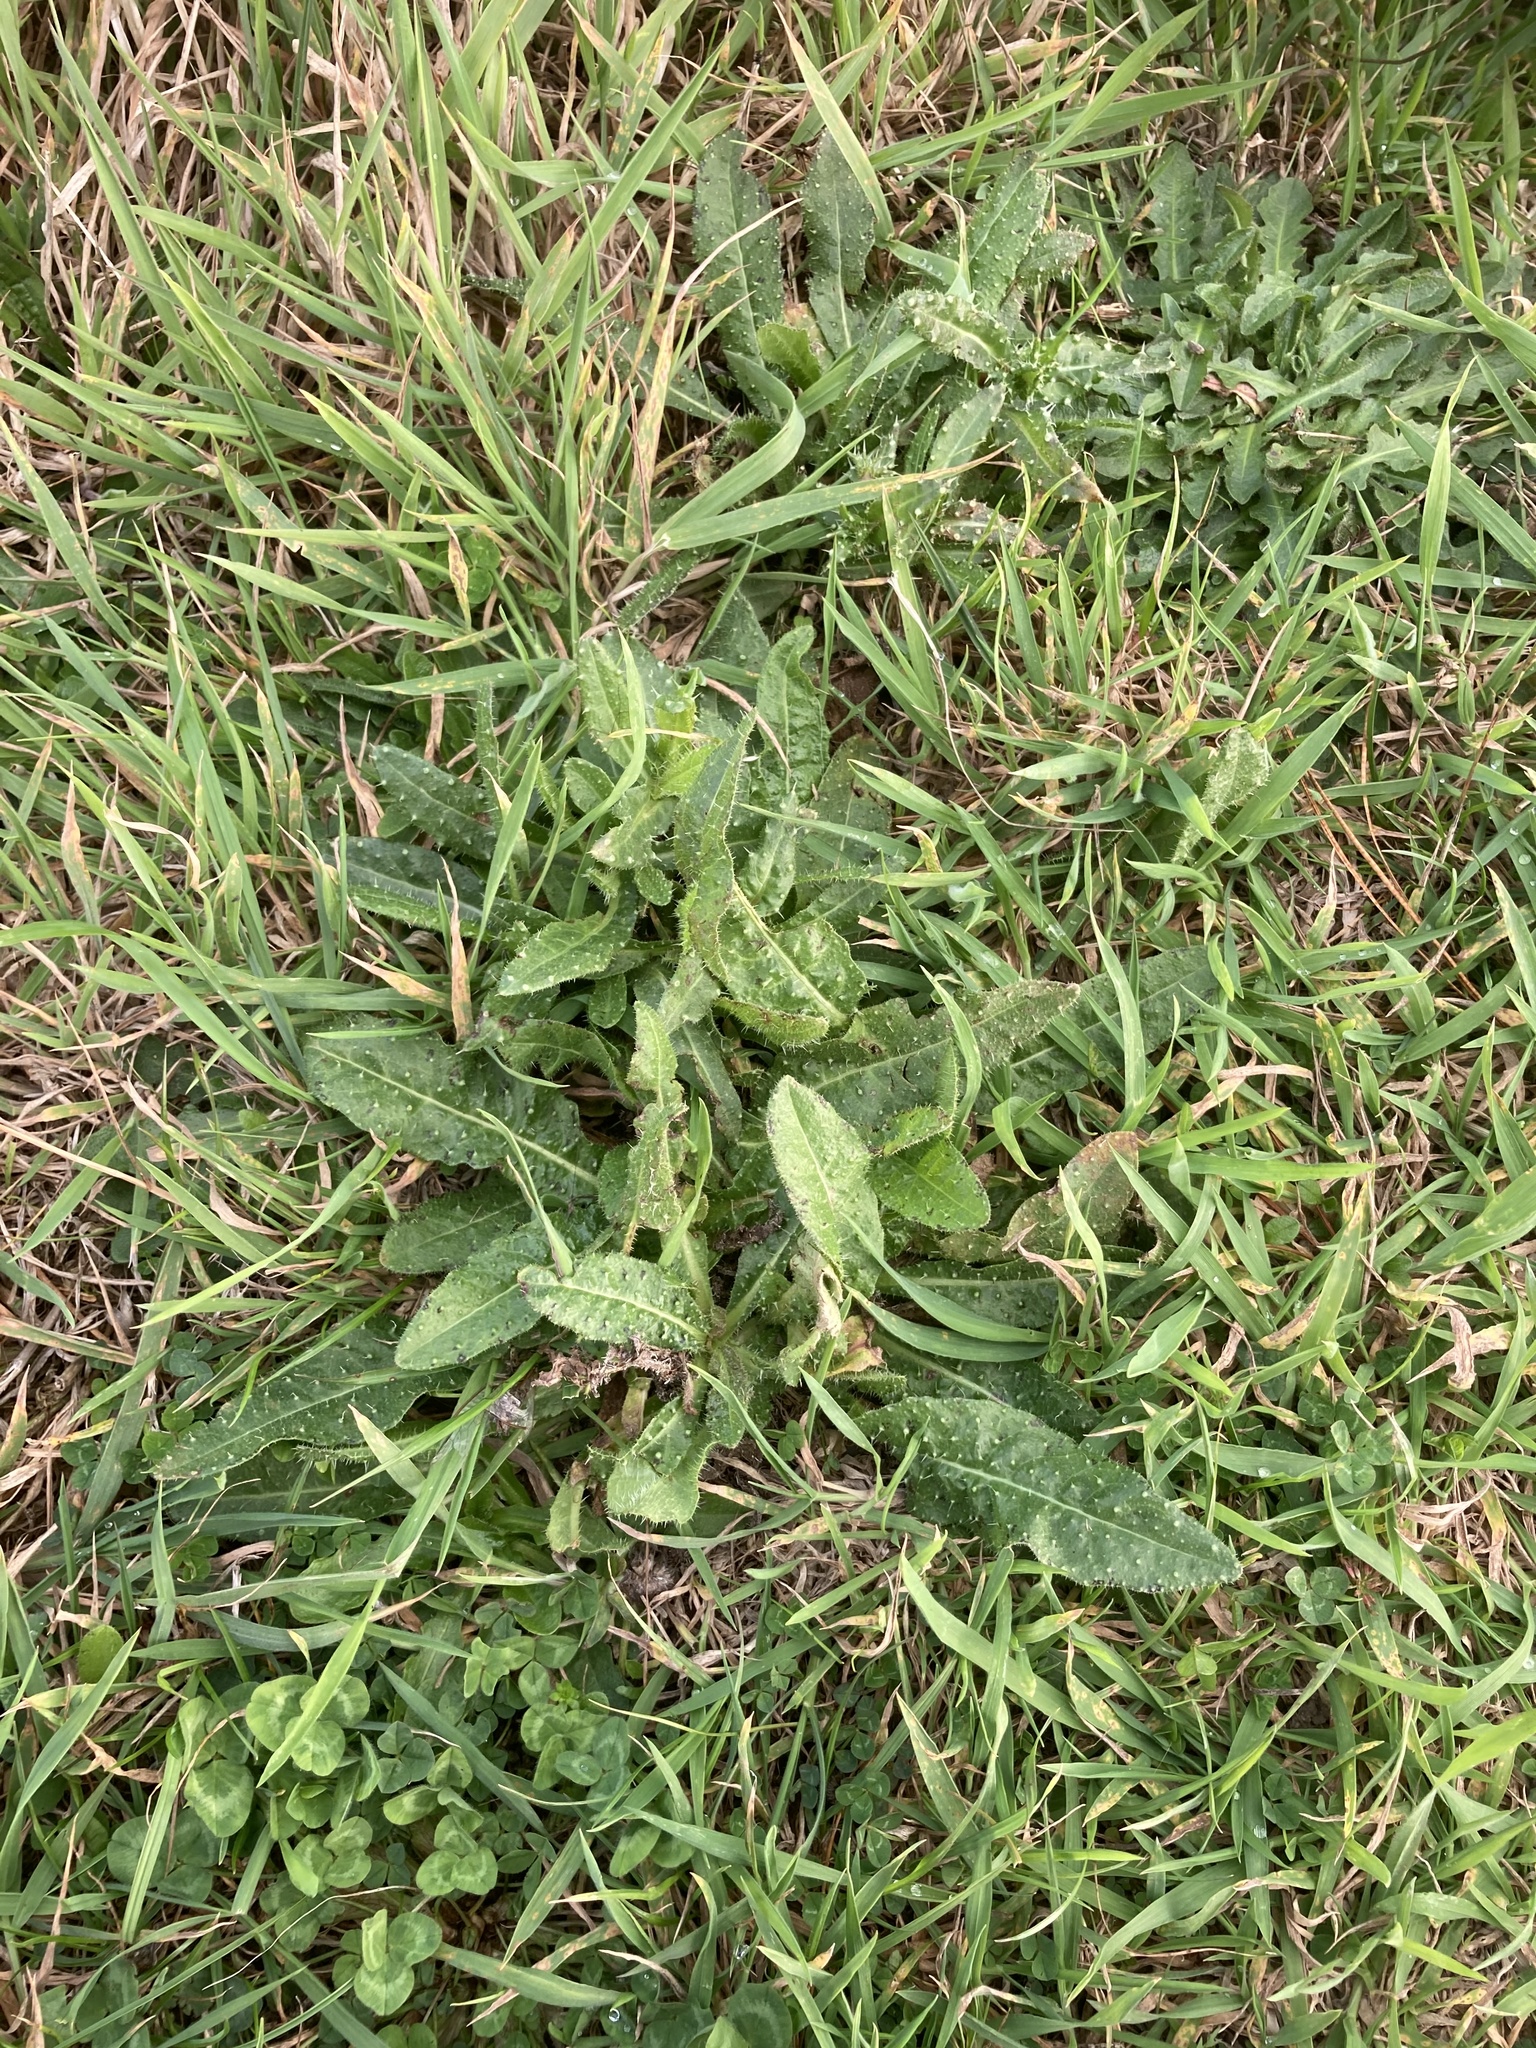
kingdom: Plantae
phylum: Tracheophyta
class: Magnoliopsida
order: Asterales
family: Asteraceae
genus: Helminthotheca
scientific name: Helminthotheca echioides
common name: Ox-tongue
